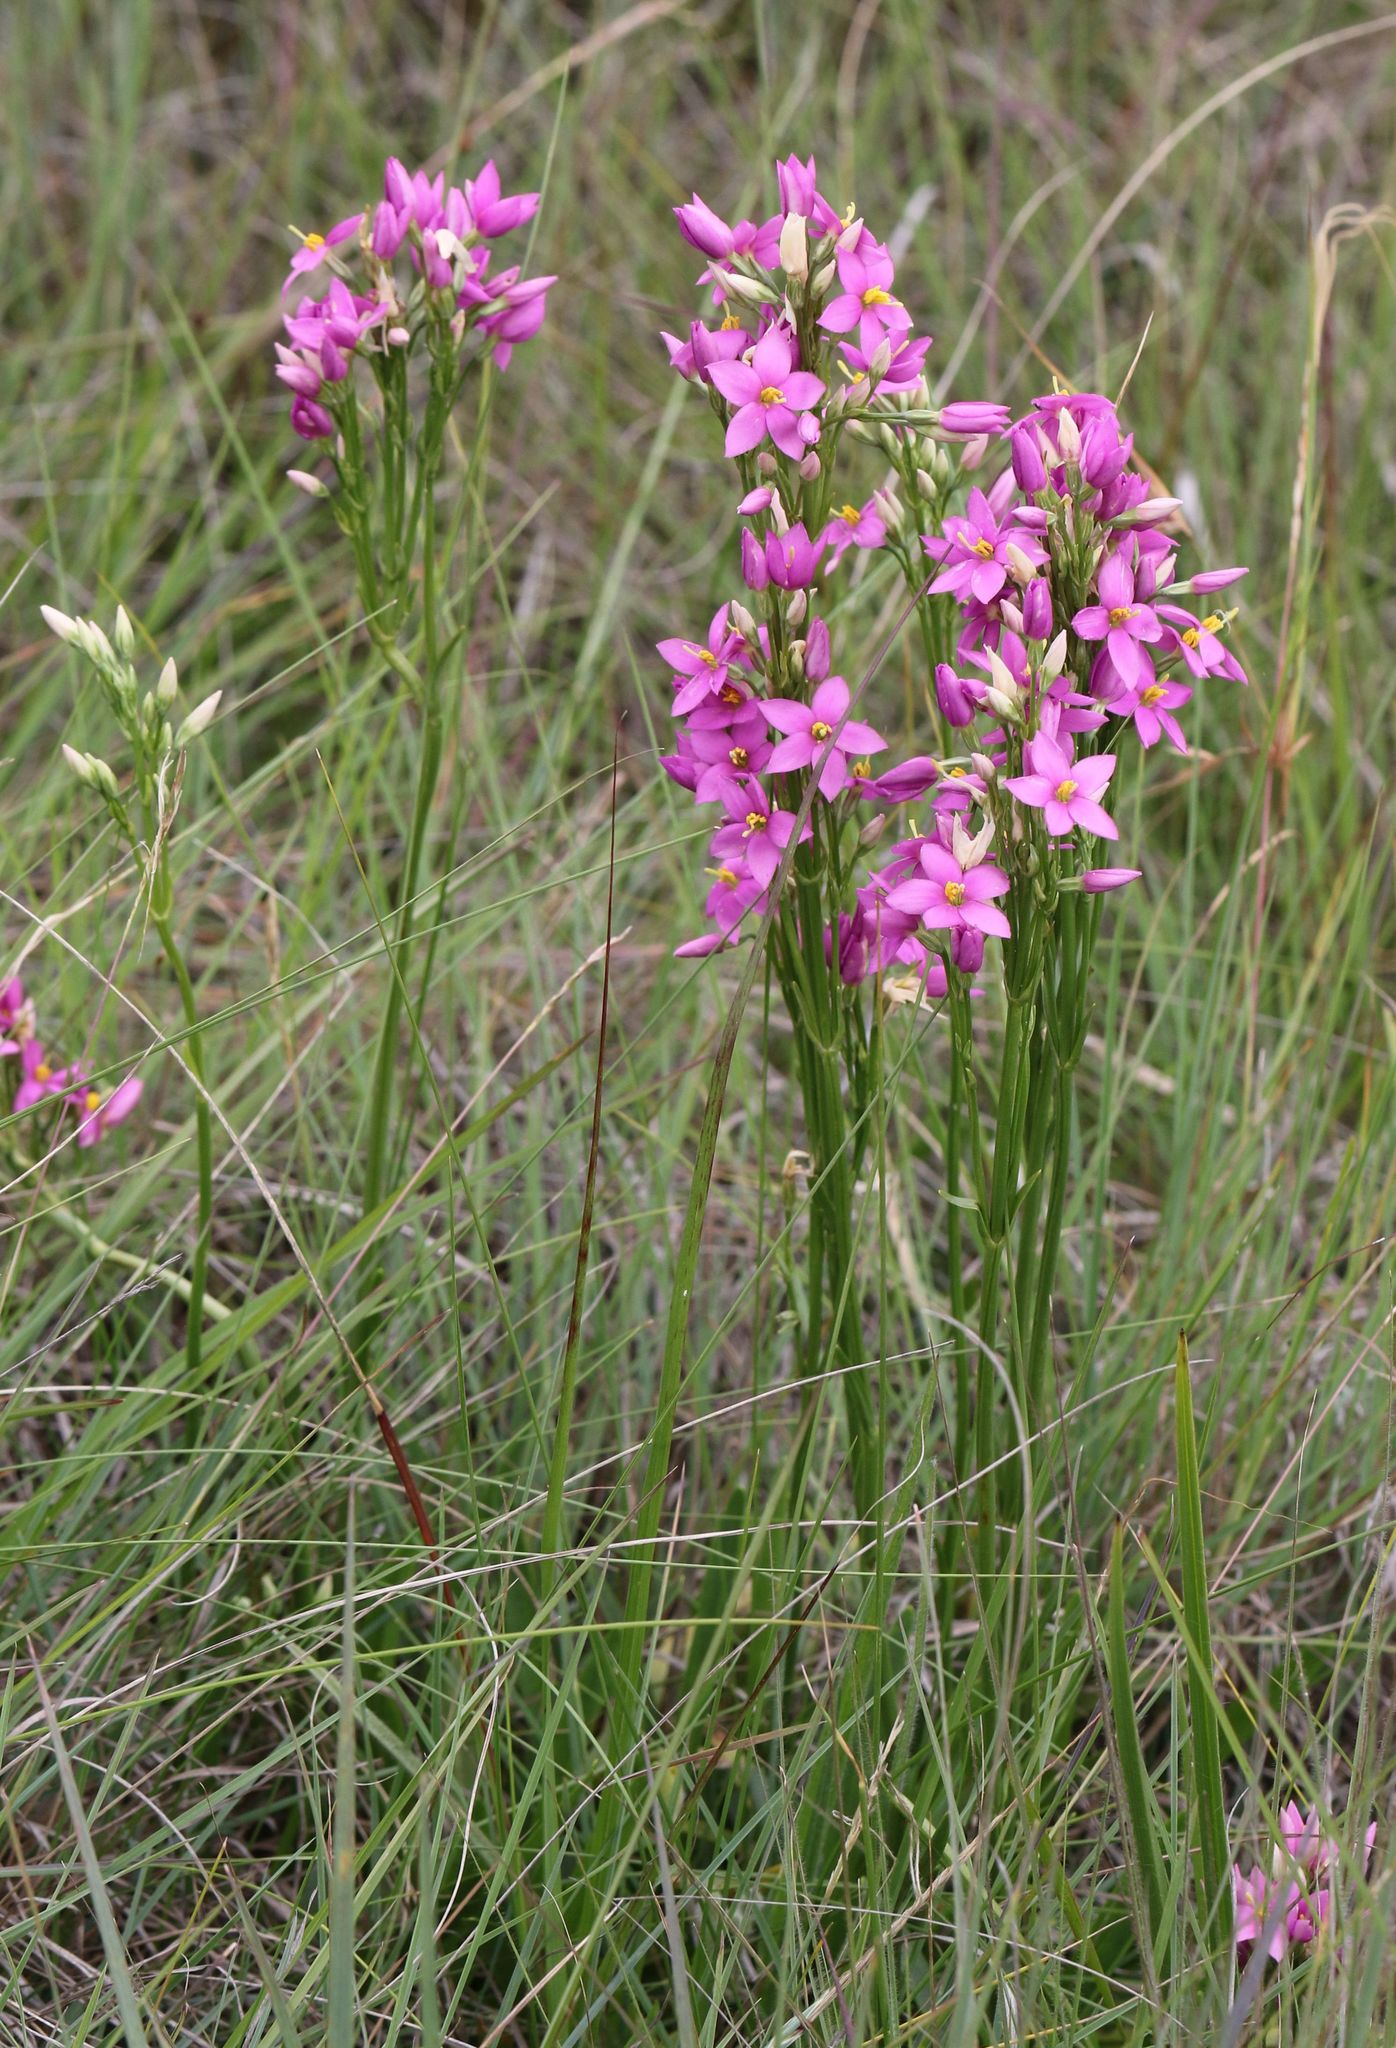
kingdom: Plantae
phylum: Tracheophyta
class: Magnoliopsida
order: Gentianales
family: Gentianaceae
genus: Chironia
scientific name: Chironia krebsii
